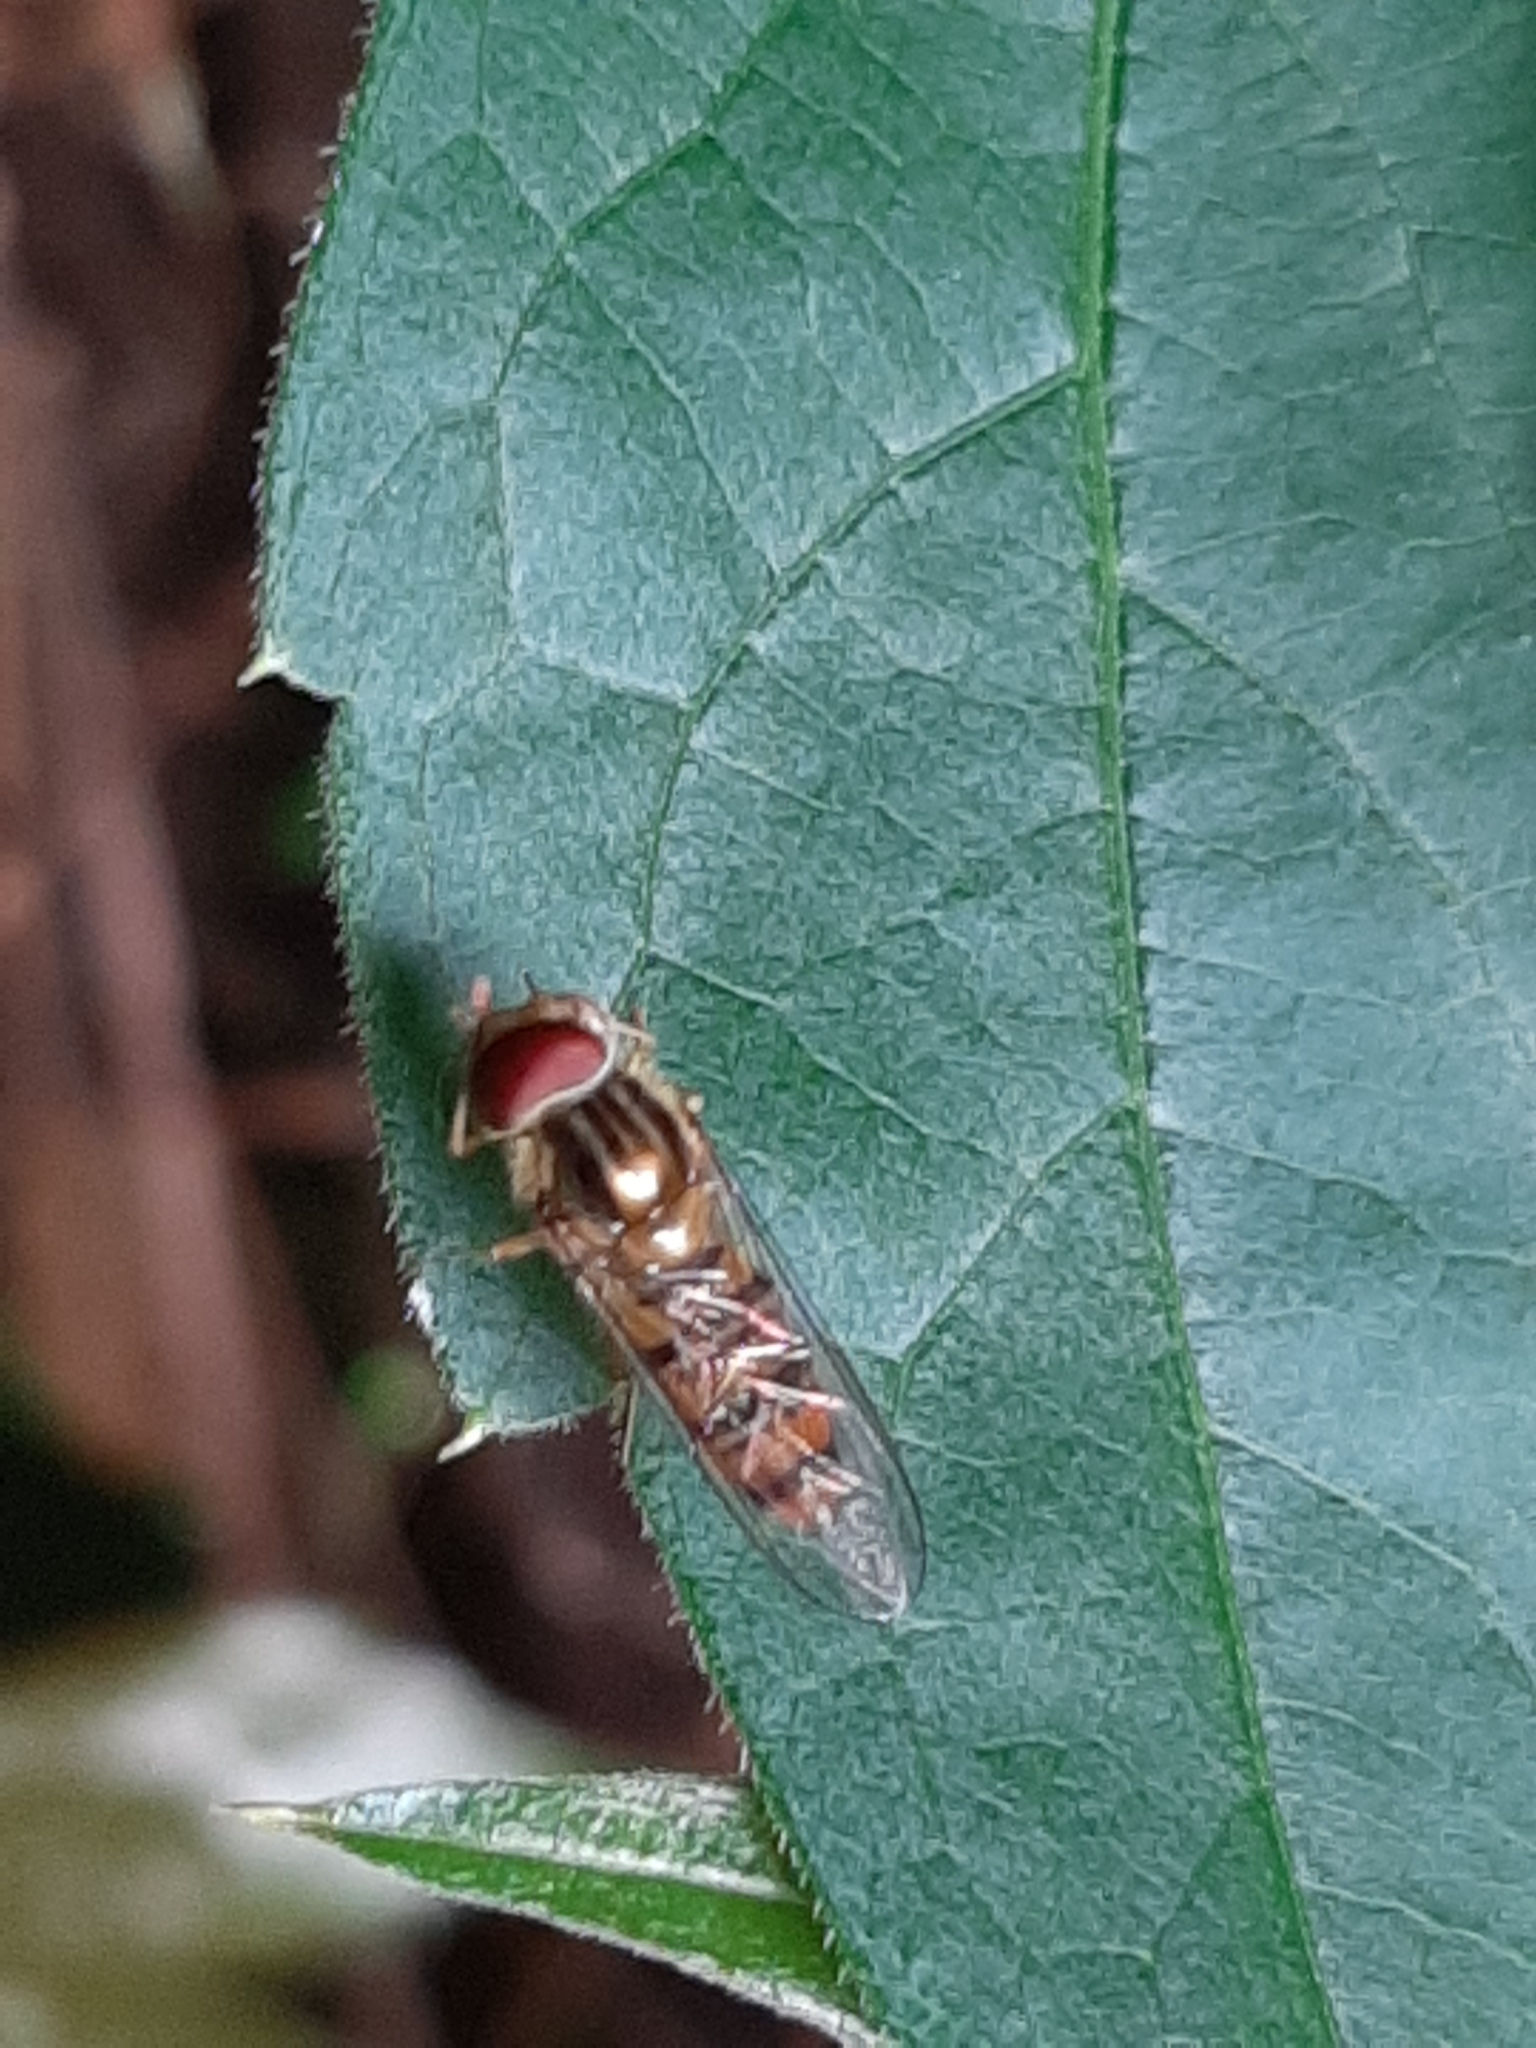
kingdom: Animalia
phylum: Arthropoda
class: Insecta
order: Diptera
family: Syrphidae
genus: Episyrphus
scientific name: Episyrphus balteatus
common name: Marmalade hoverfly
